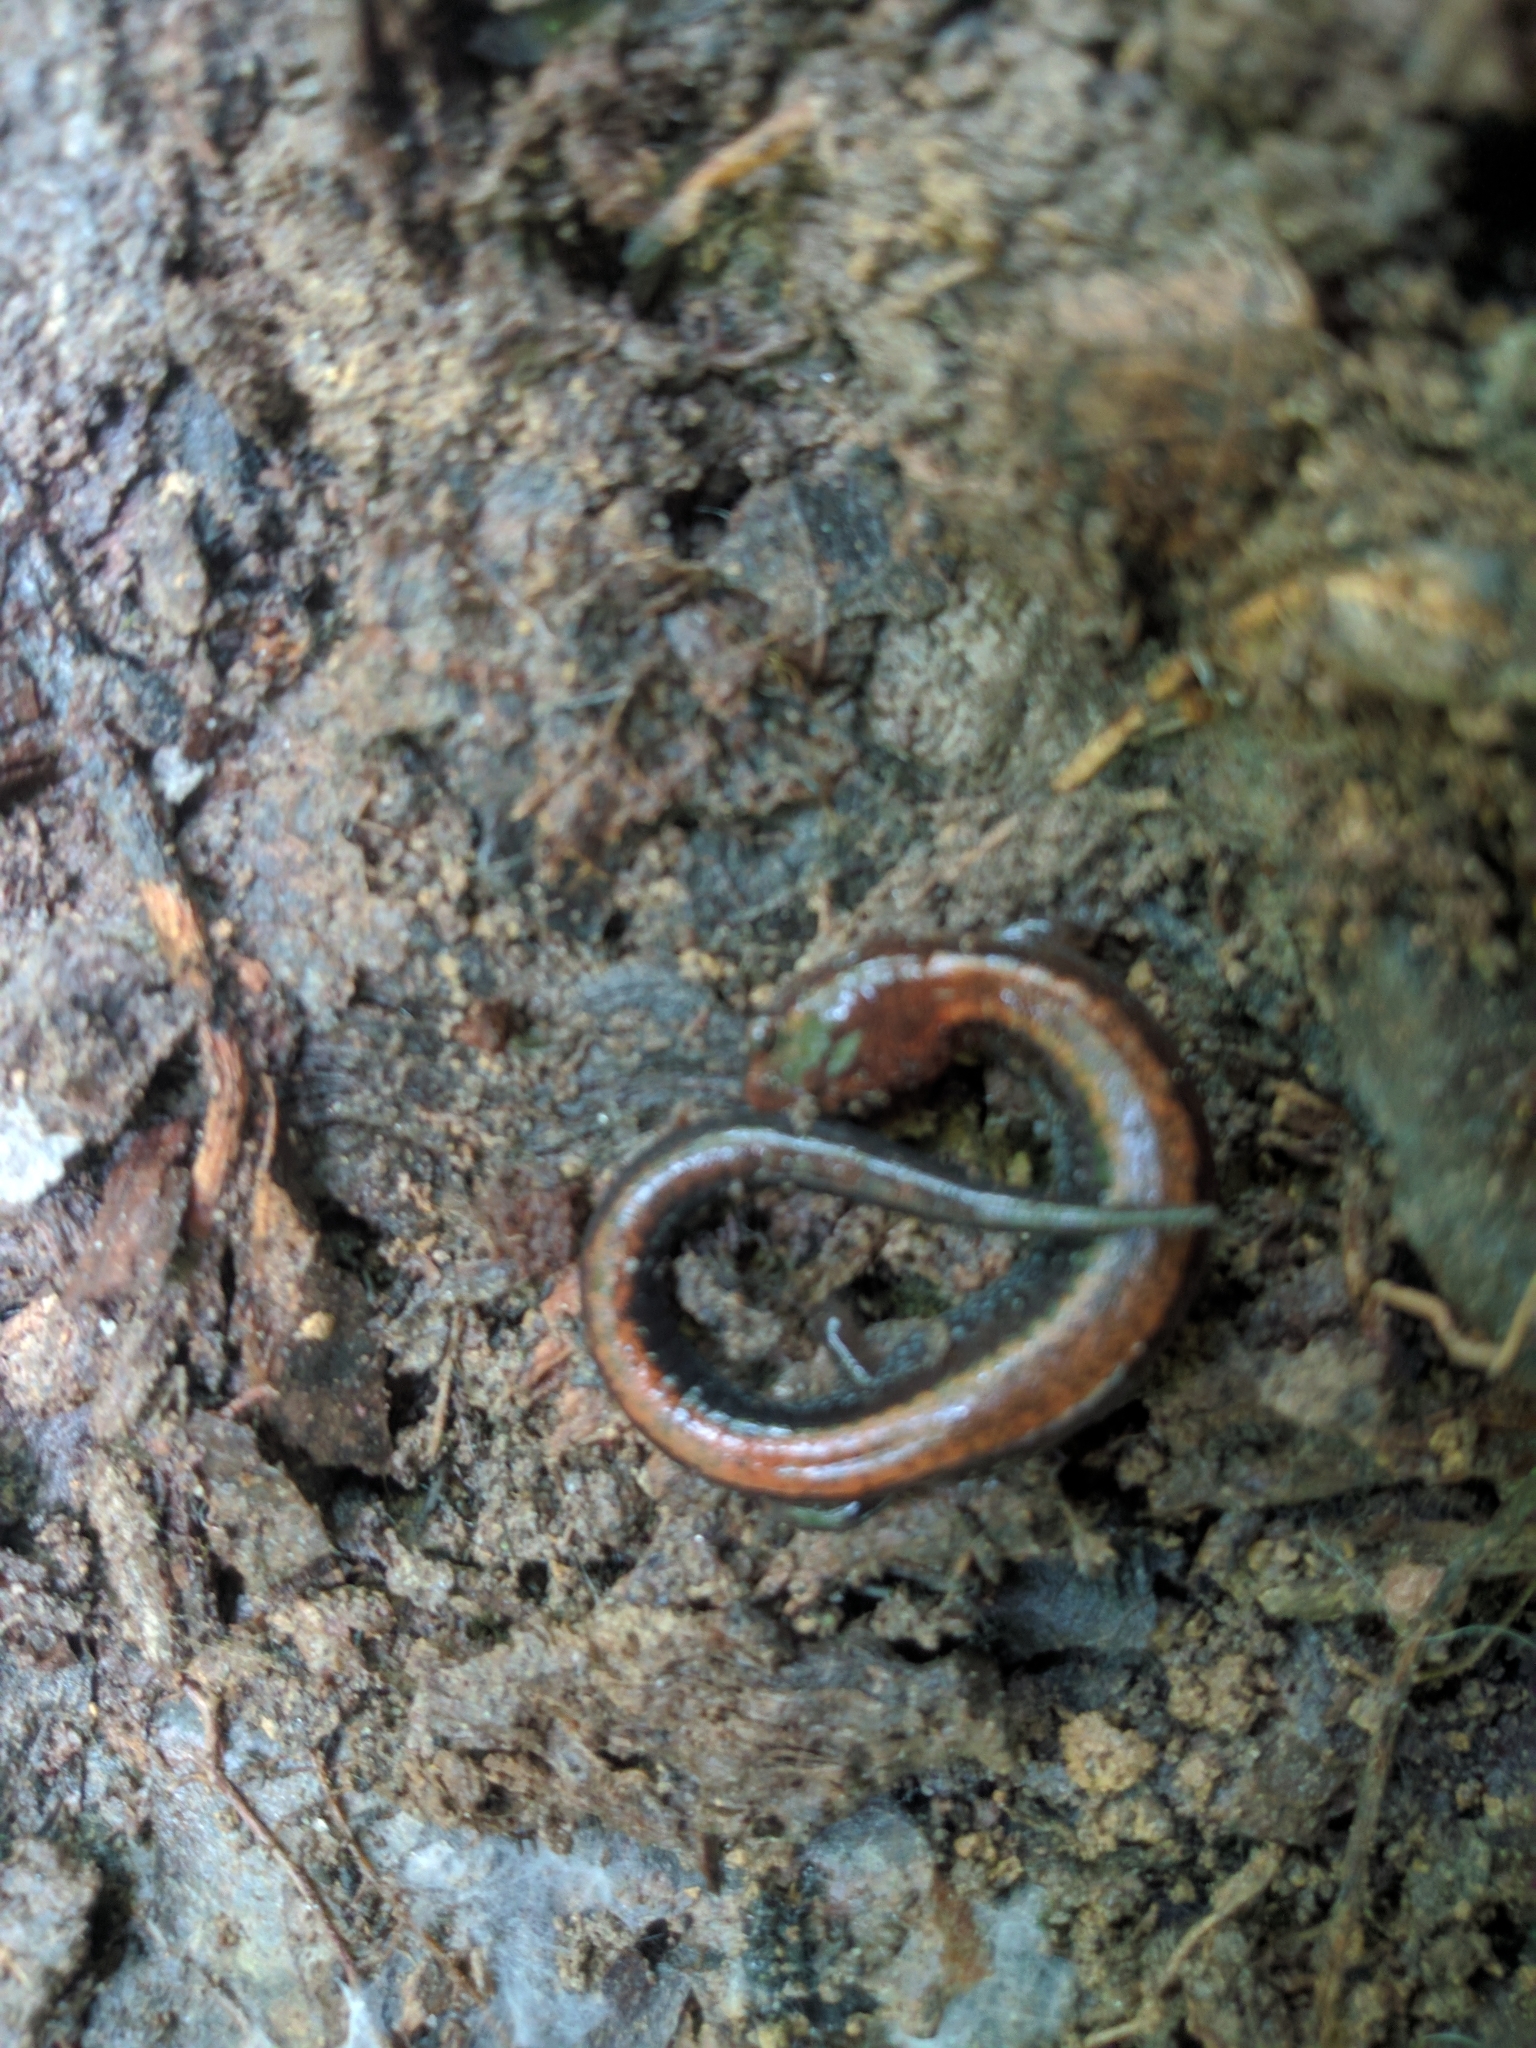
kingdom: Animalia
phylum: Chordata
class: Amphibia
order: Caudata
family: Plethodontidae
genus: Plethodon
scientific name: Plethodon cinereus
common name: Redback salamander
